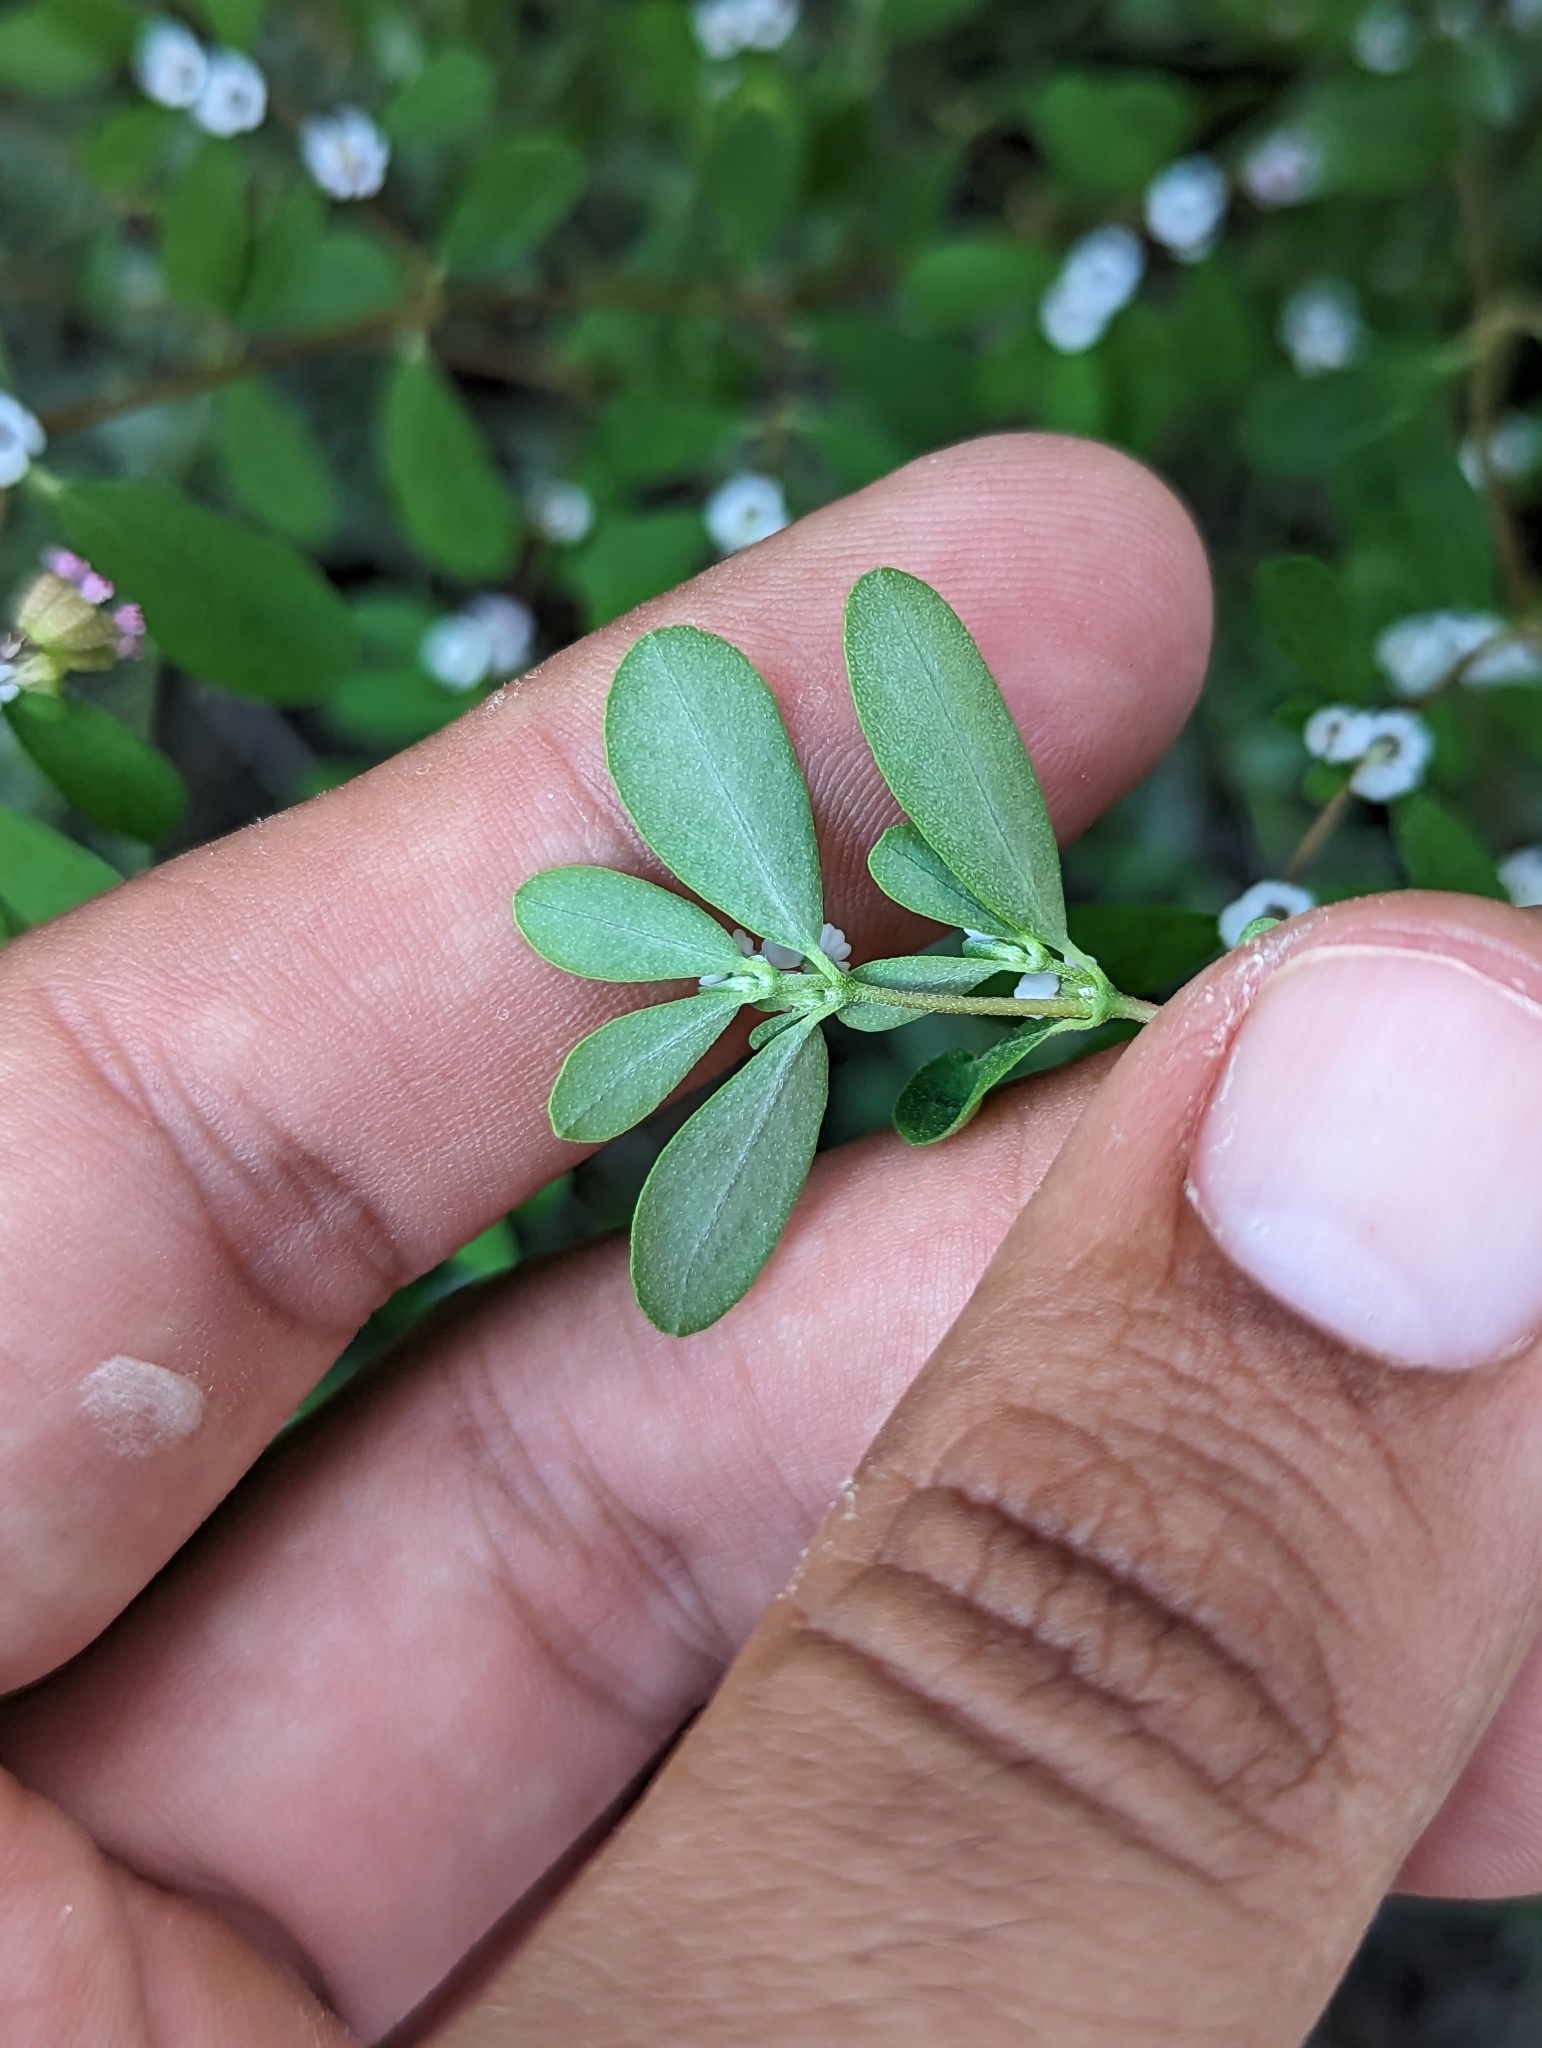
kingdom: Plantae
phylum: Tracheophyta
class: Magnoliopsida
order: Malpighiales
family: Euphorbiaceae
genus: Euphorbia
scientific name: Euphorbia pediculifera
